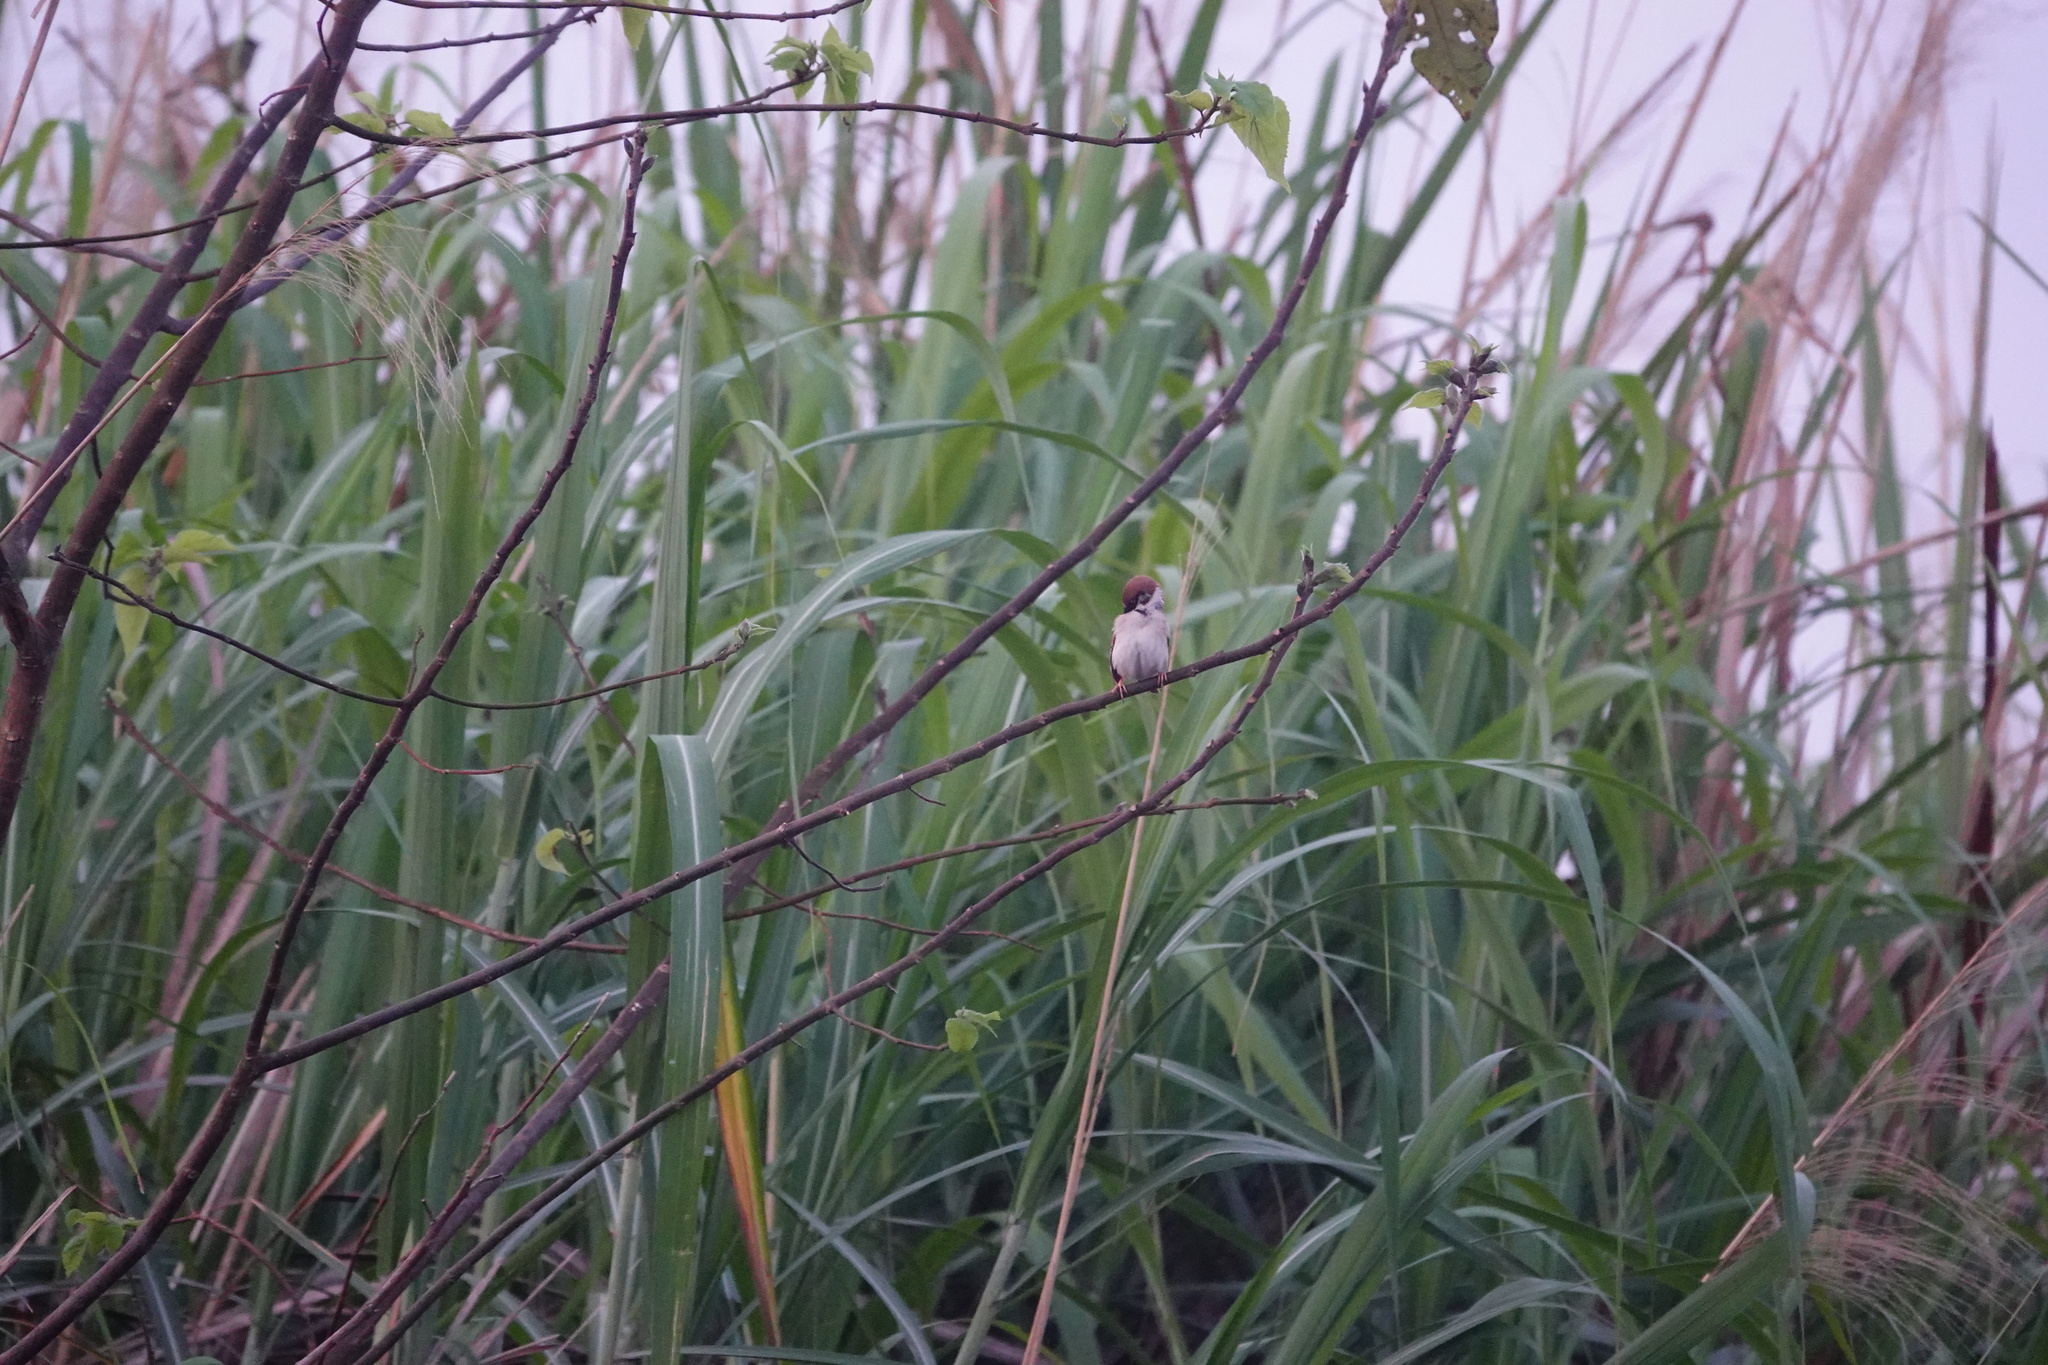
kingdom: Animalia
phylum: Chordata
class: Aves
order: Passeriformes
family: Passeridae
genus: Passer
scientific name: Passer montanus
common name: Eurasian tree sparrow
